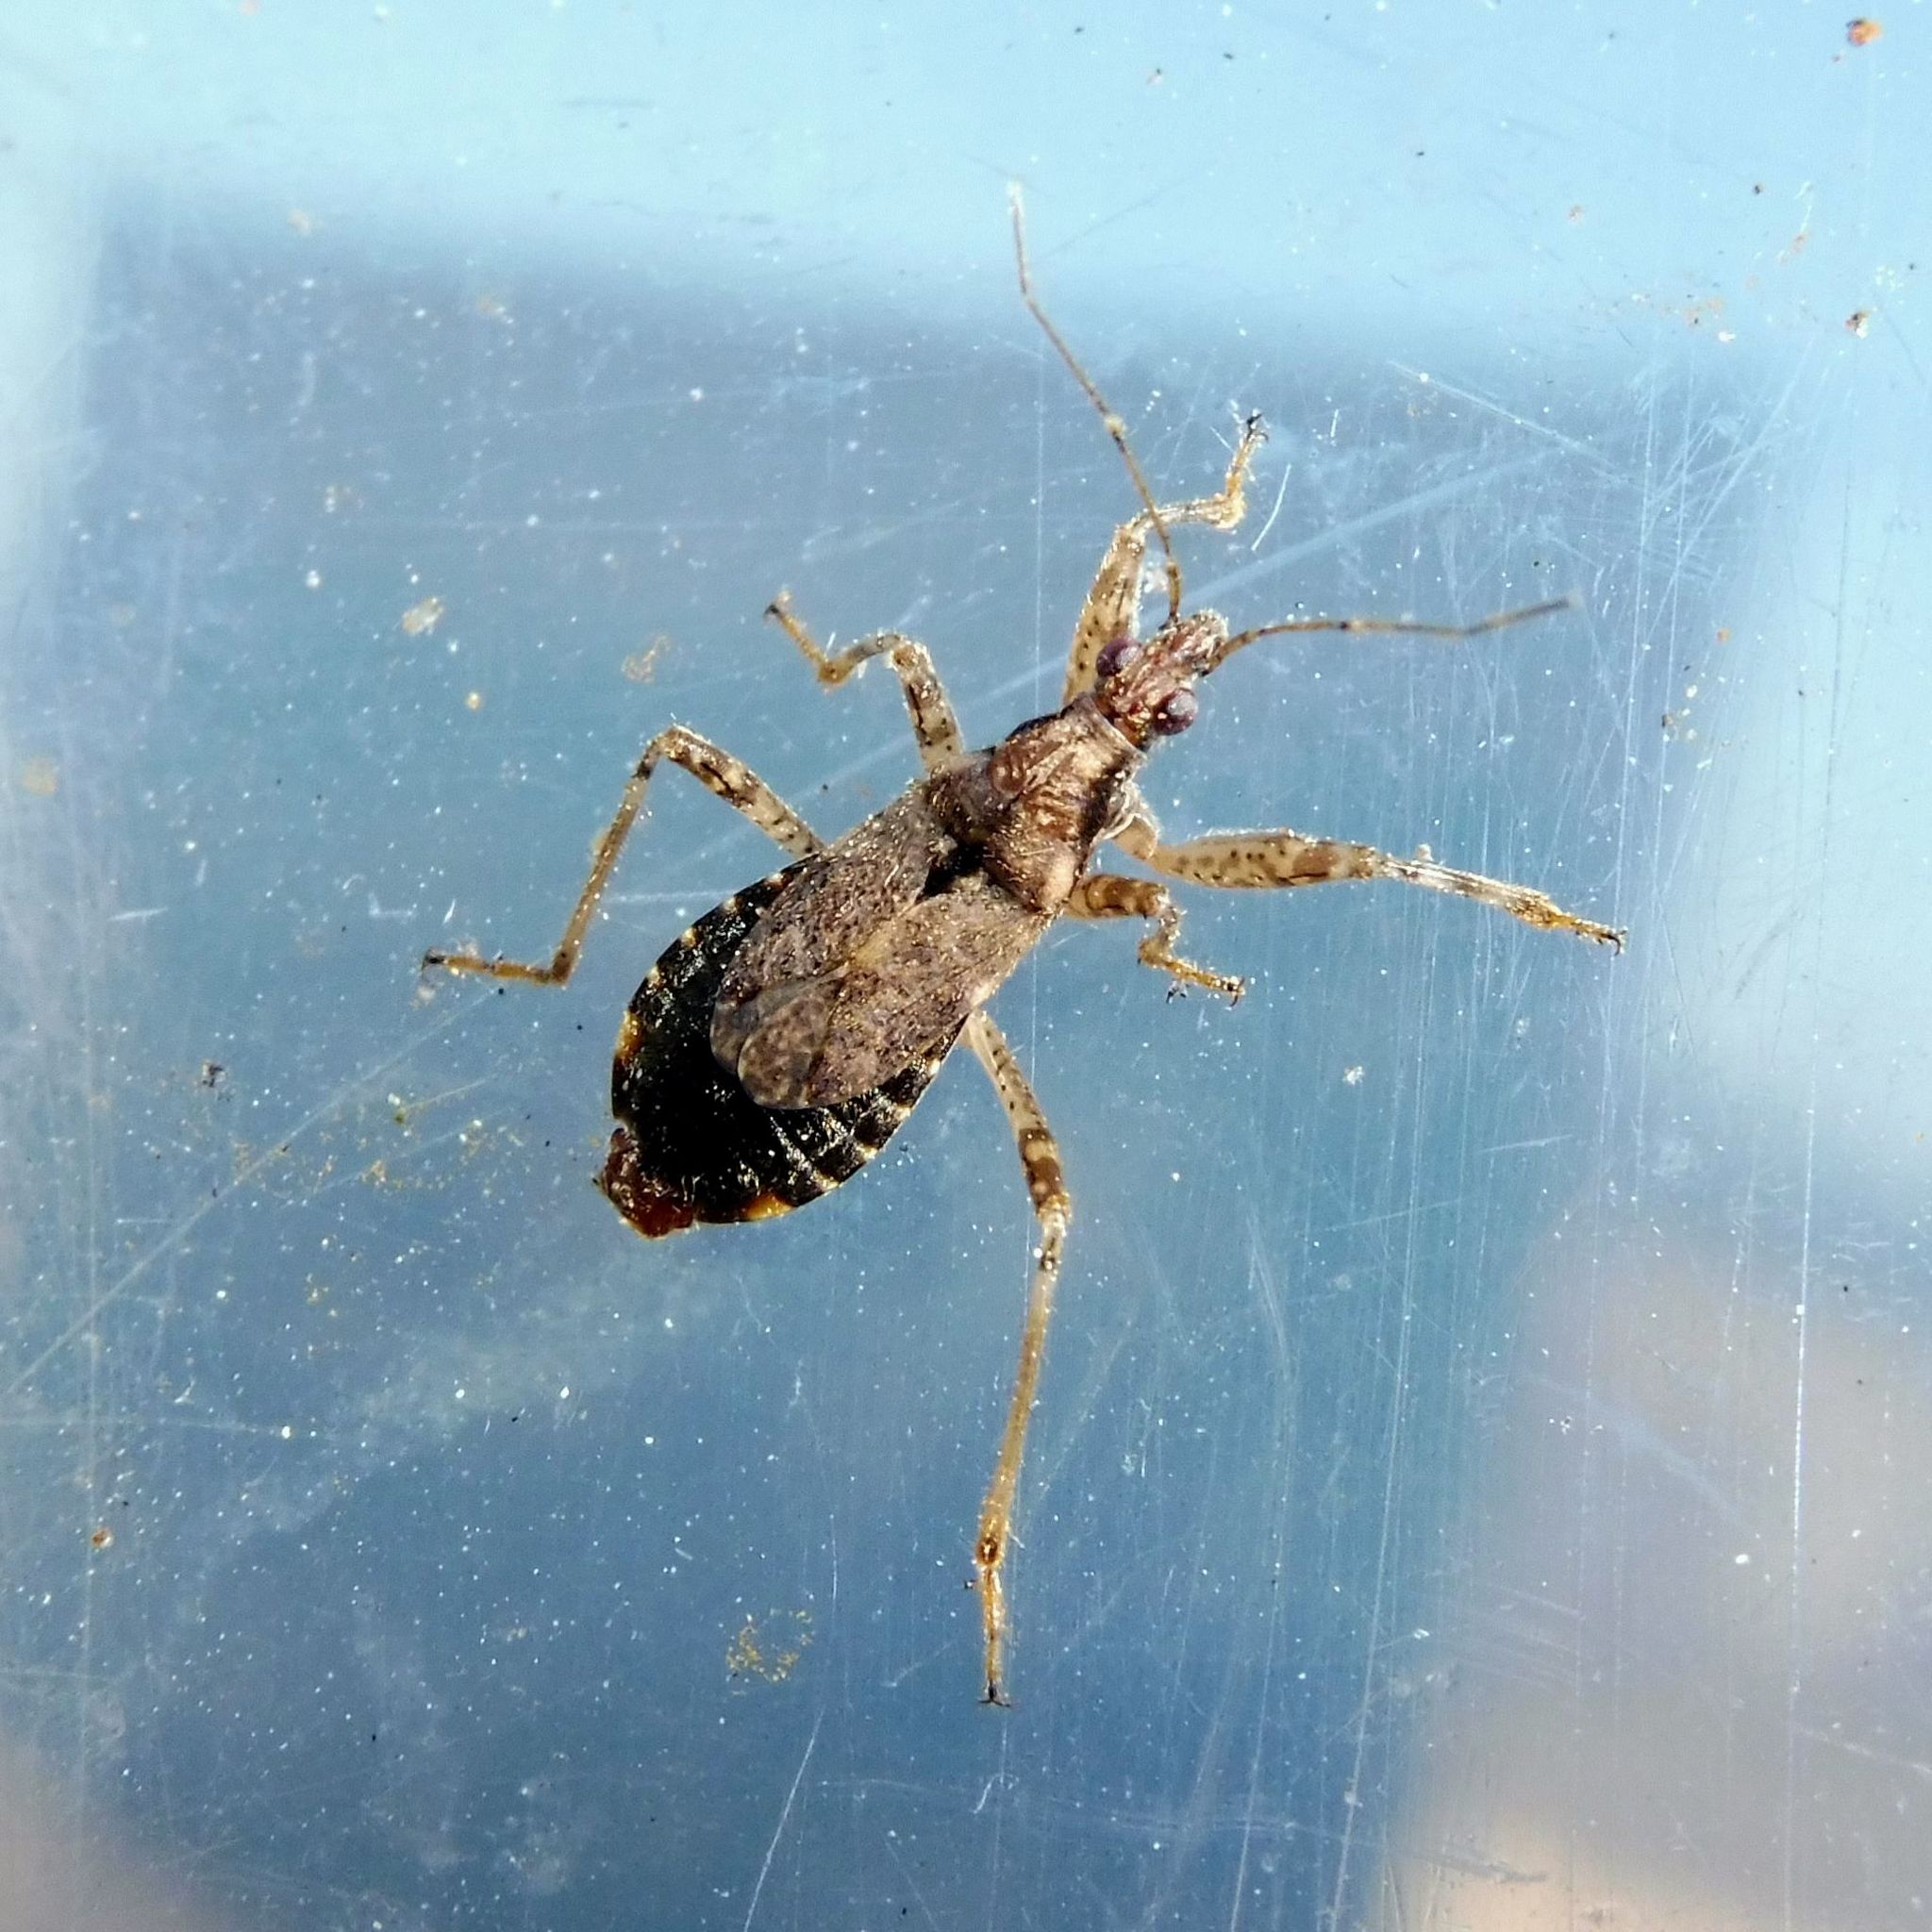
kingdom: Animalia
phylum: Arthropoda
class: Insecta
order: Hemiptera
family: Nabidae
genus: Himacerus
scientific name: Himacerus mirmicoides
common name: Ant damsel bug
